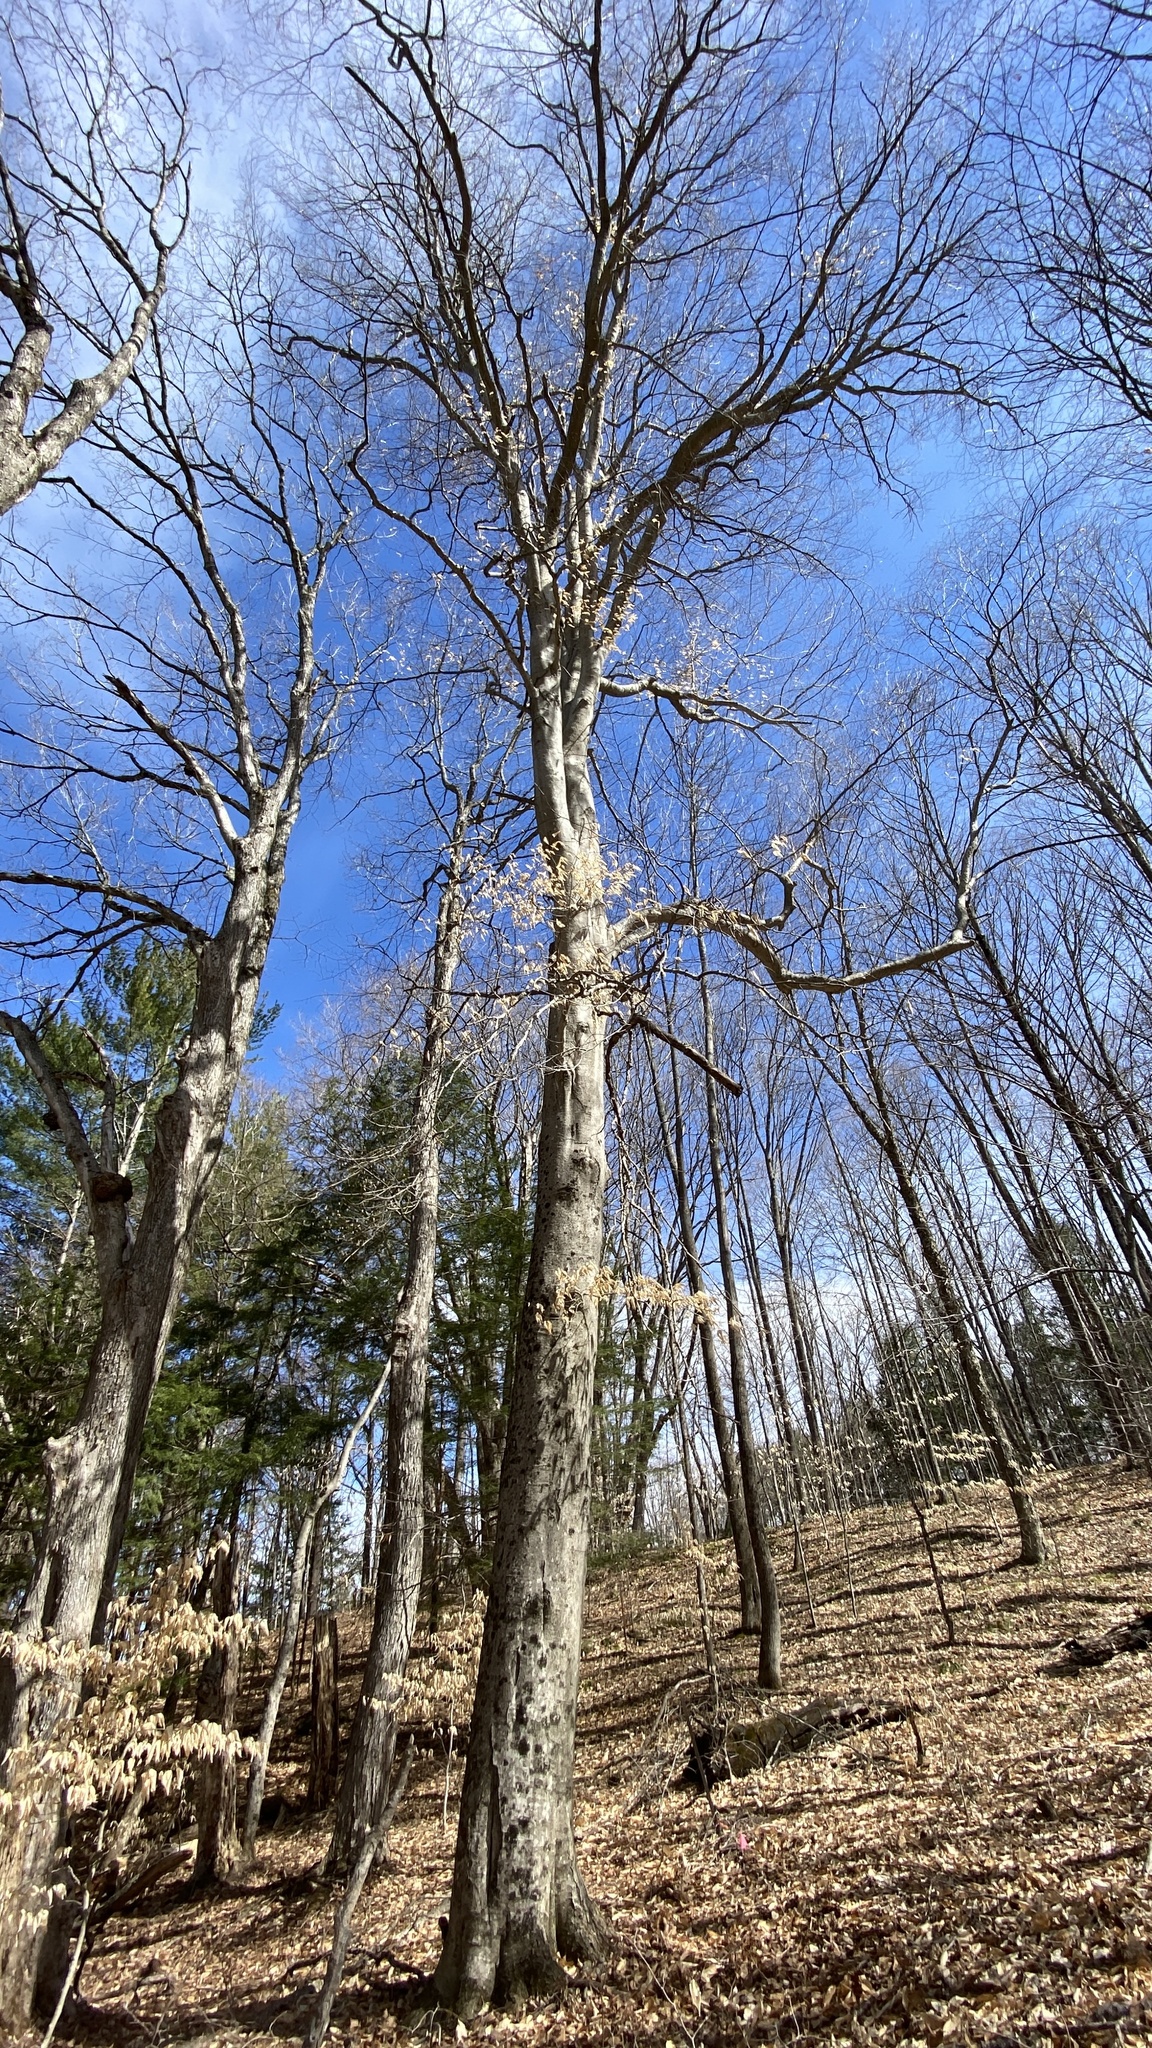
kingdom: Plantae
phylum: Tracheophyta
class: Magnoliopsida
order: Fagales
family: Fagaceae
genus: Fagus
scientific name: Fagus grandifolia
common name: American beech
